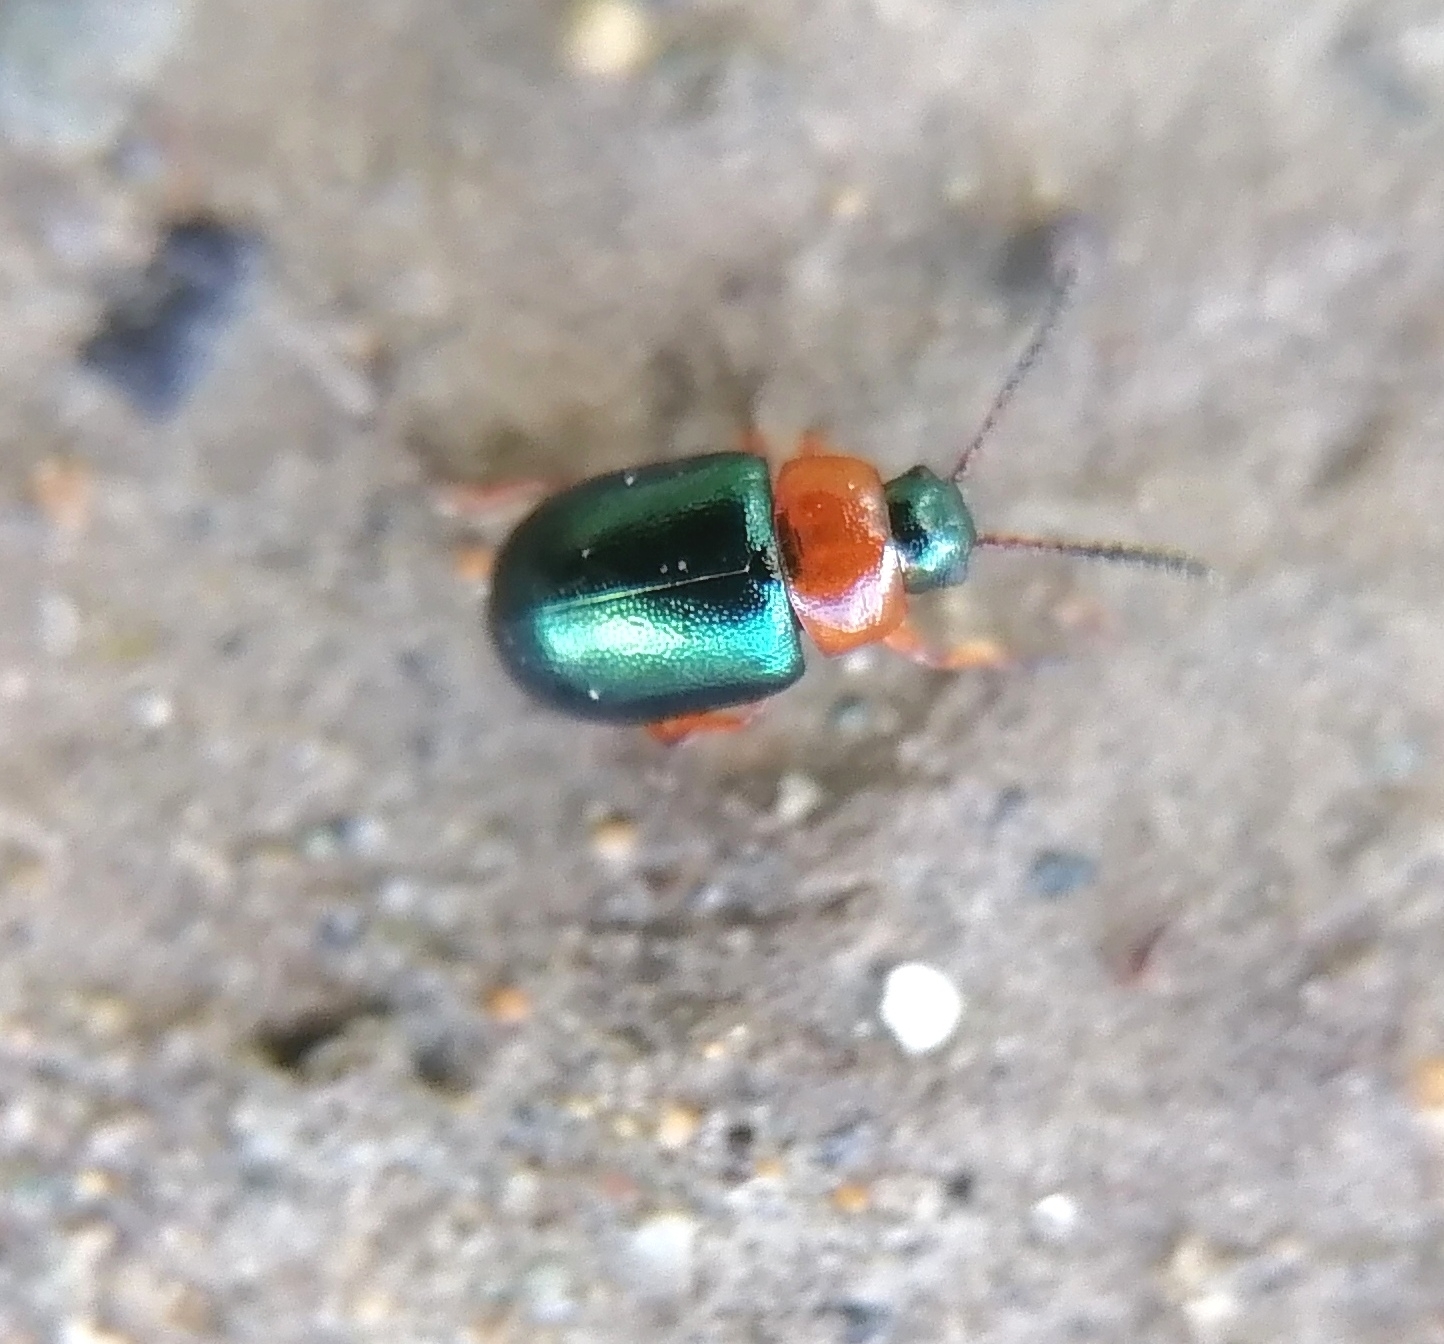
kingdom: Animalia
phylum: Arthropoda
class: Insecta
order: Coleoptera
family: Chrysomelidae
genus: Gastrophysa
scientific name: Gastrophysa polygoni
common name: Knotweed leaf beetle
